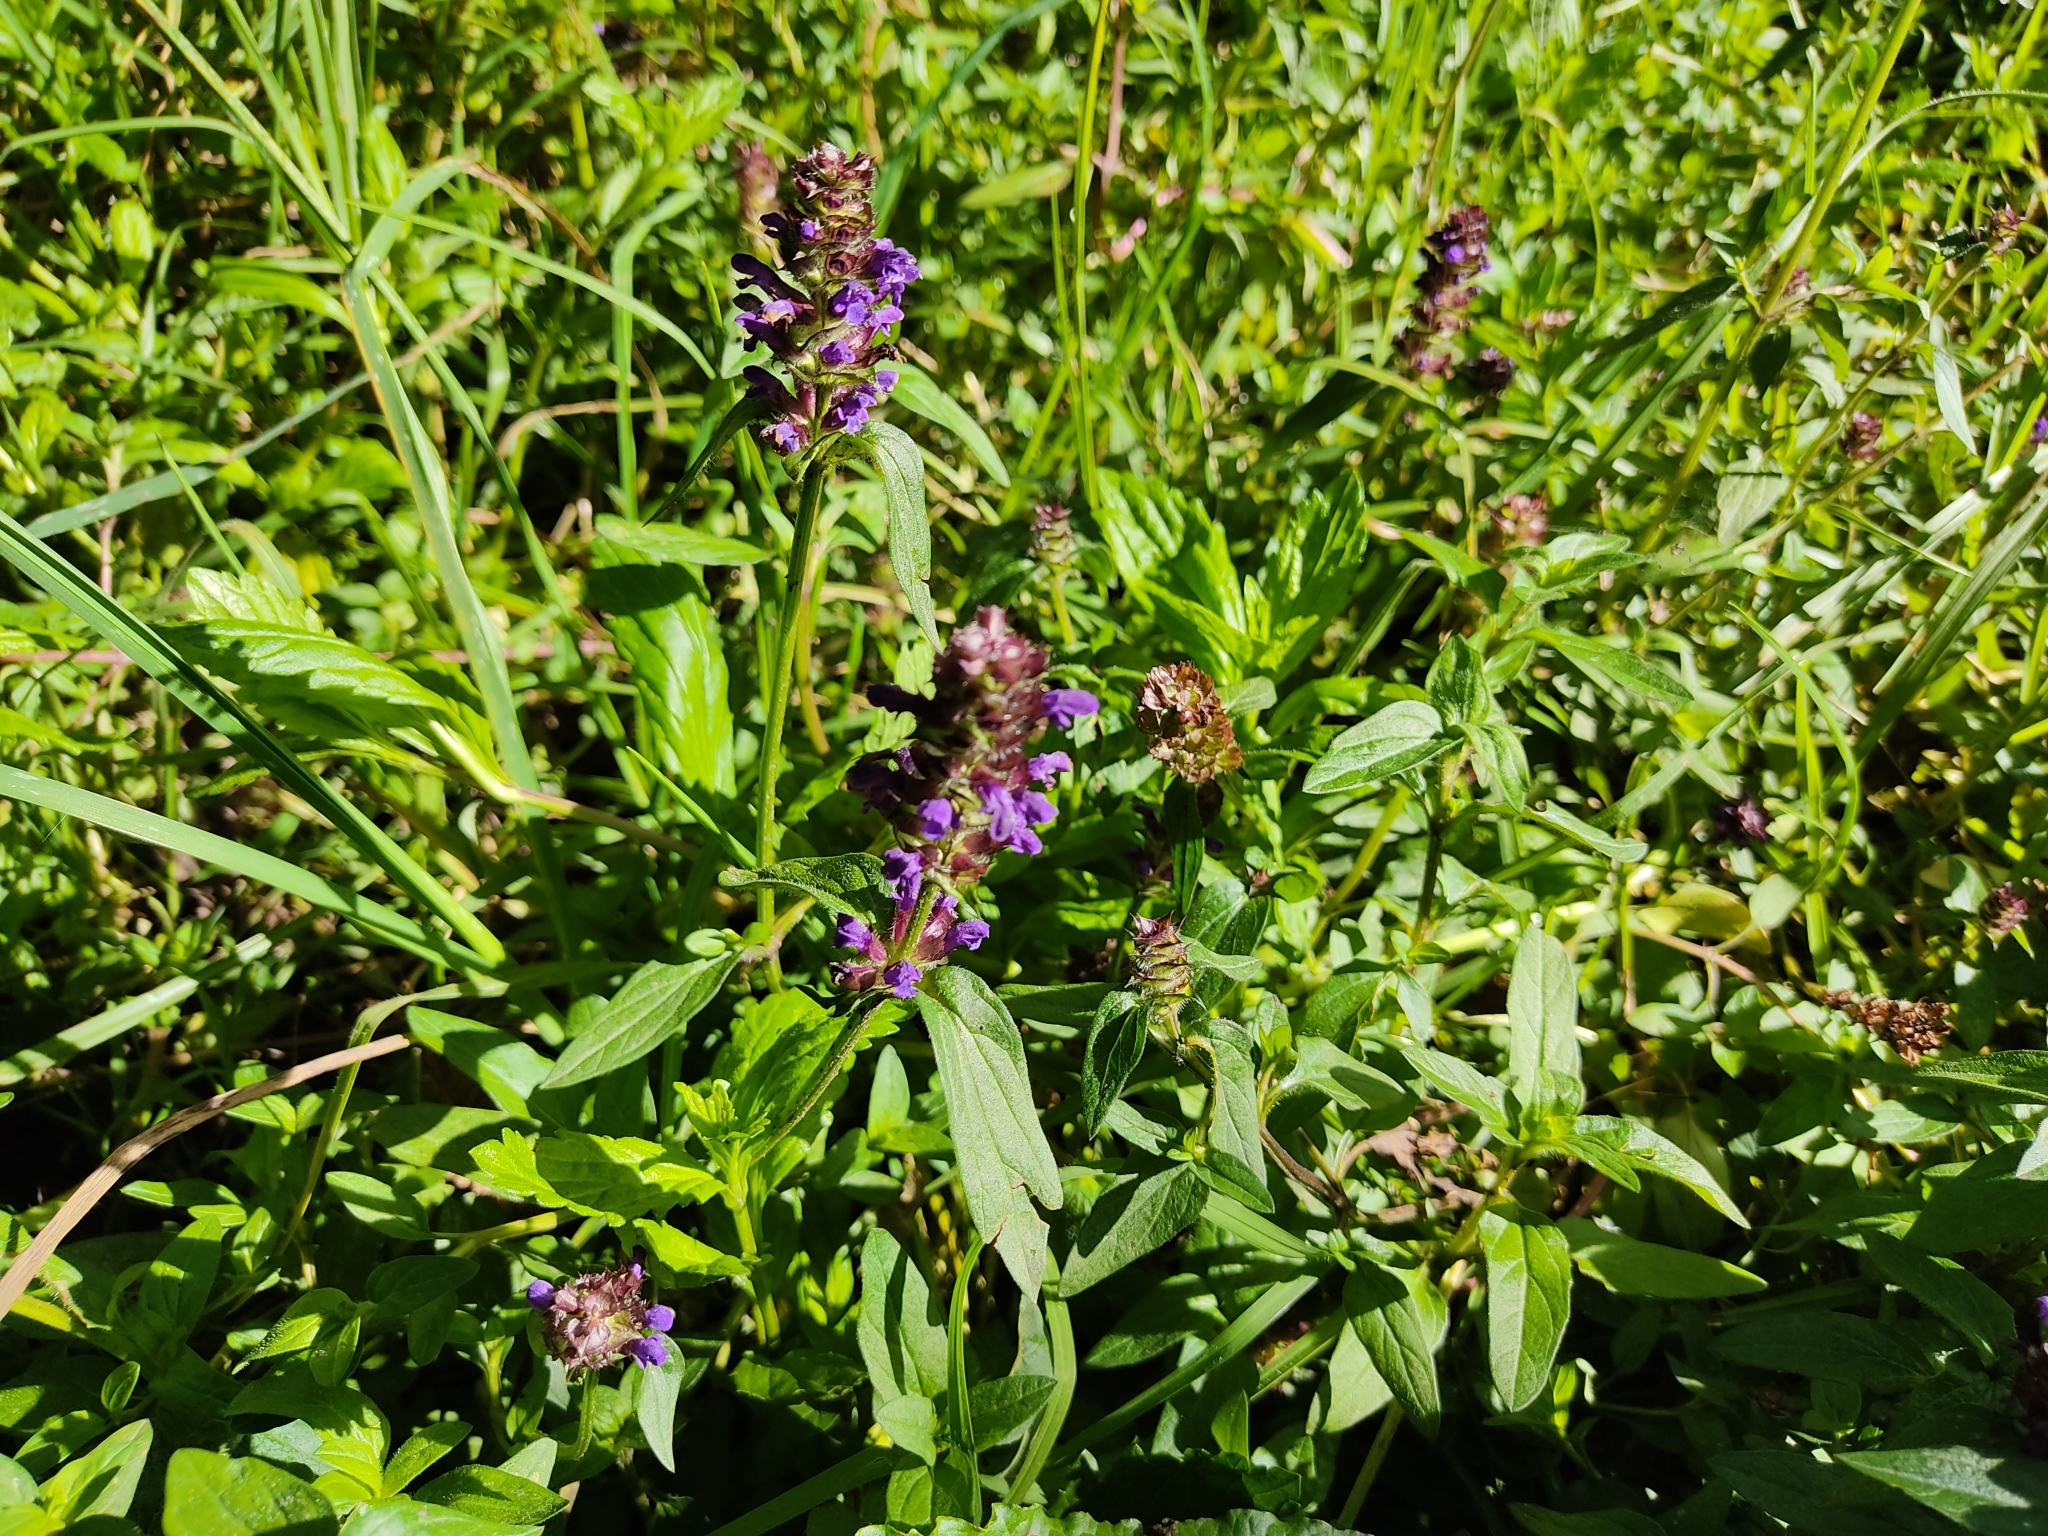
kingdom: Plantae
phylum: Tracheophyta
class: Magnoliopsida
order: Lamiales
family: Lamiaceae
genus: Prunella
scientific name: Prunella vulgaris
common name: Heal-all
